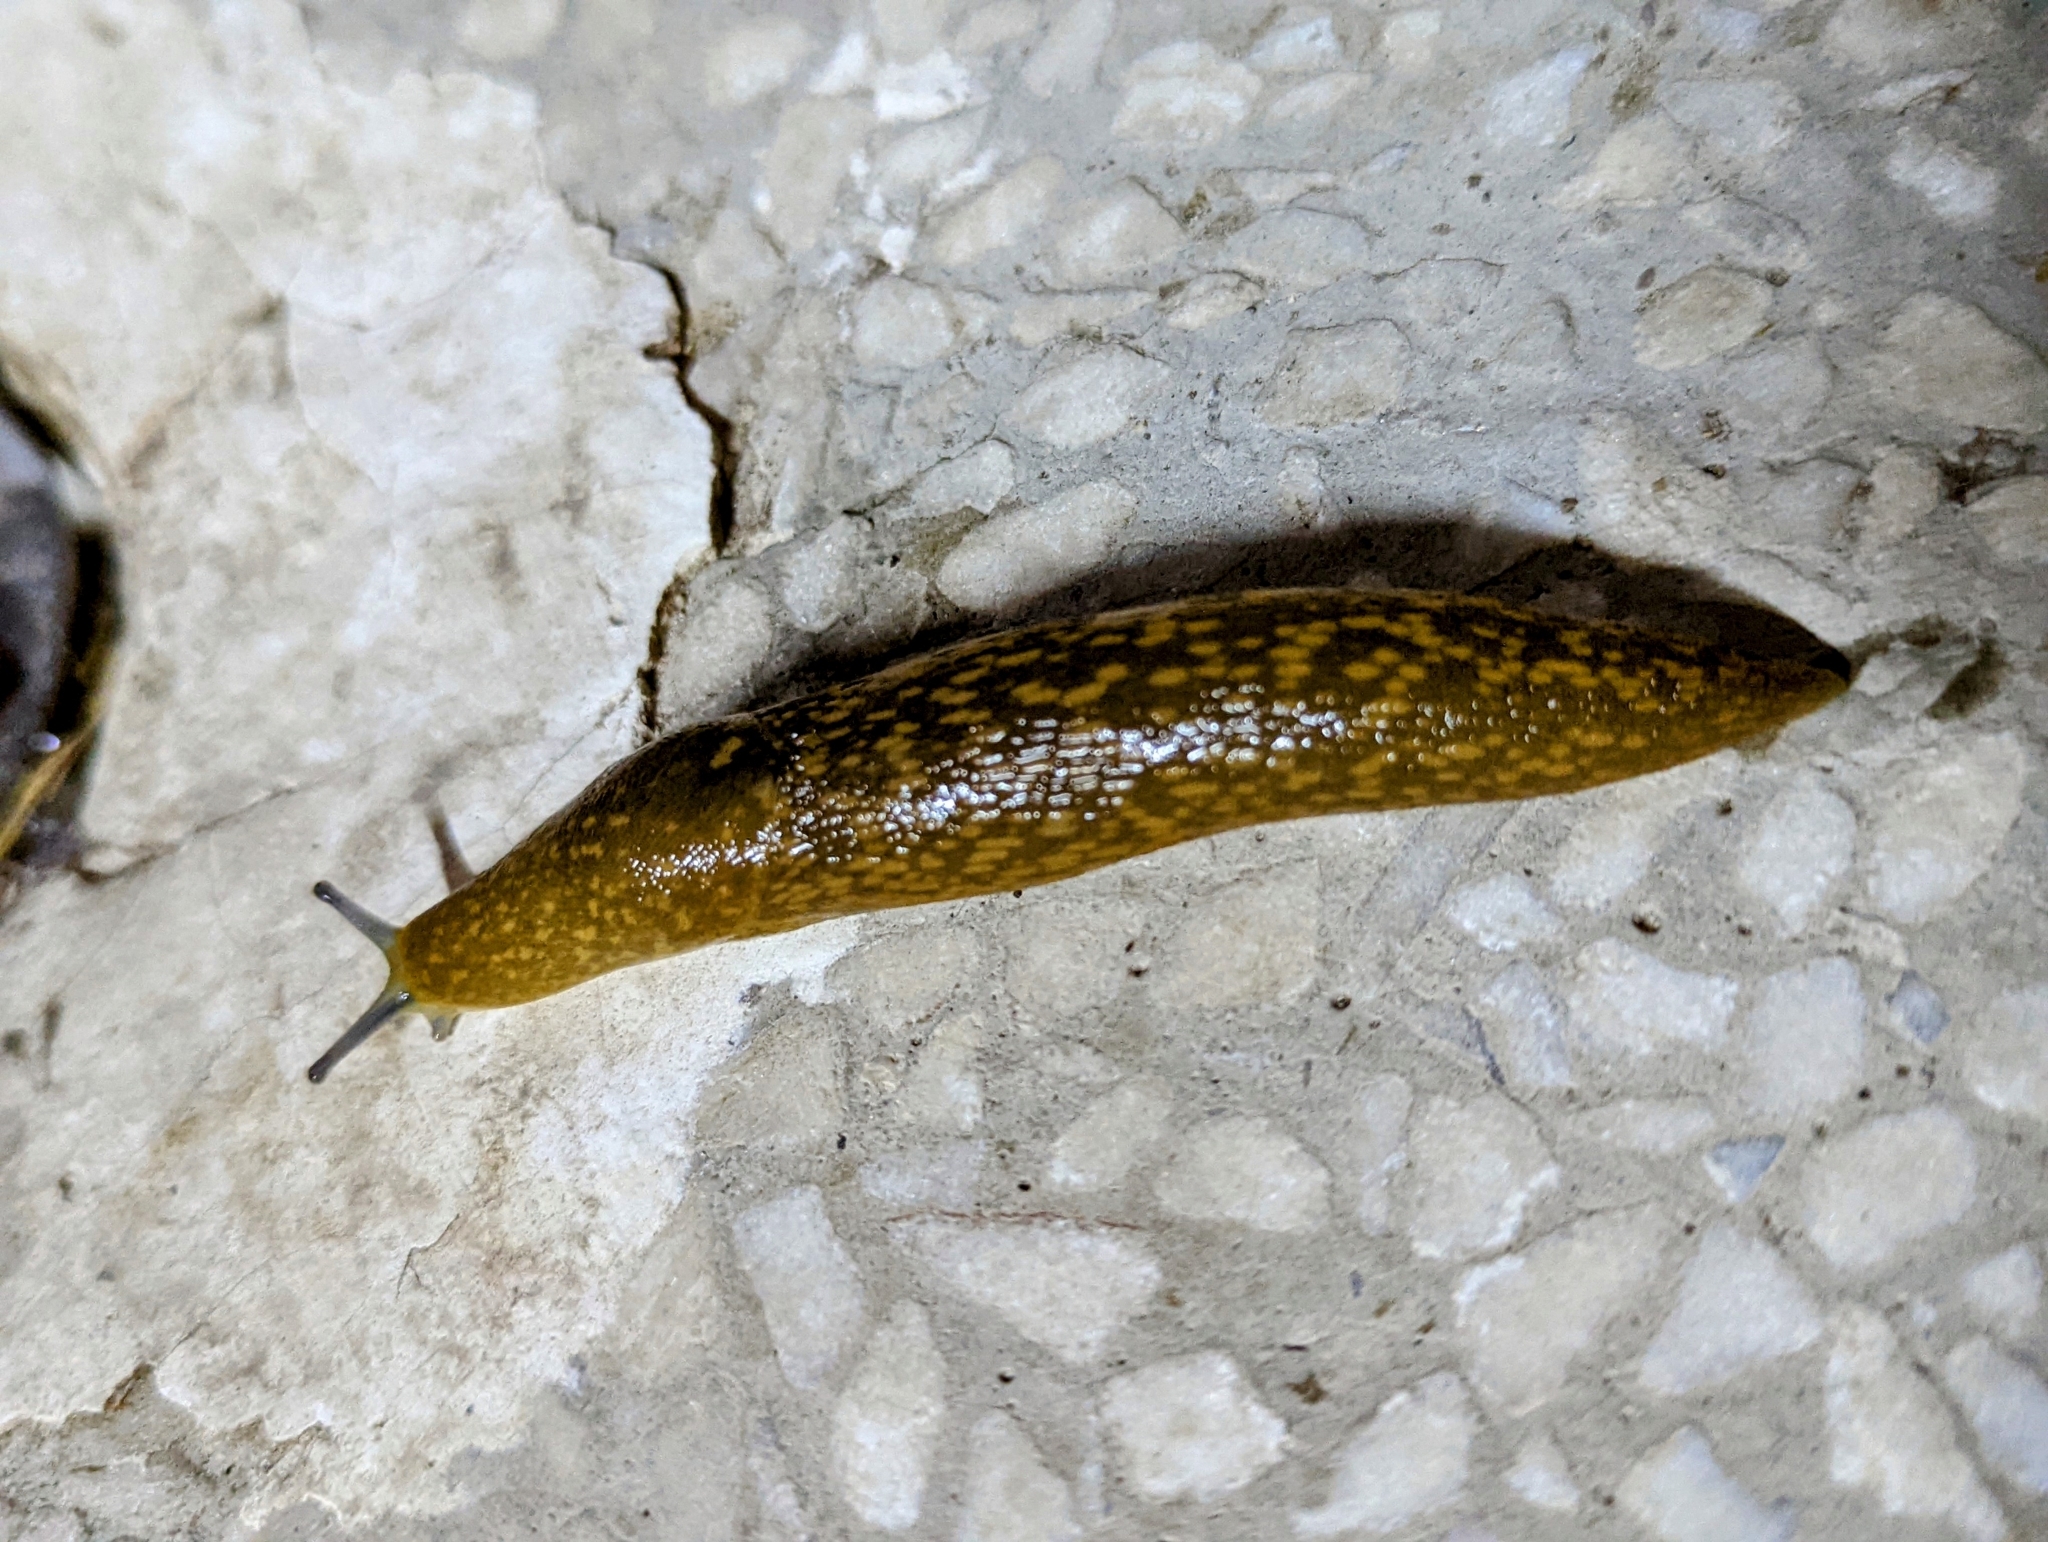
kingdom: Animalia
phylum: Mollusca
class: Gastropoda
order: Stylommatophora
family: Limacidae
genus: Limacus
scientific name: Limacus flavus
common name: Yellow gardenslug
